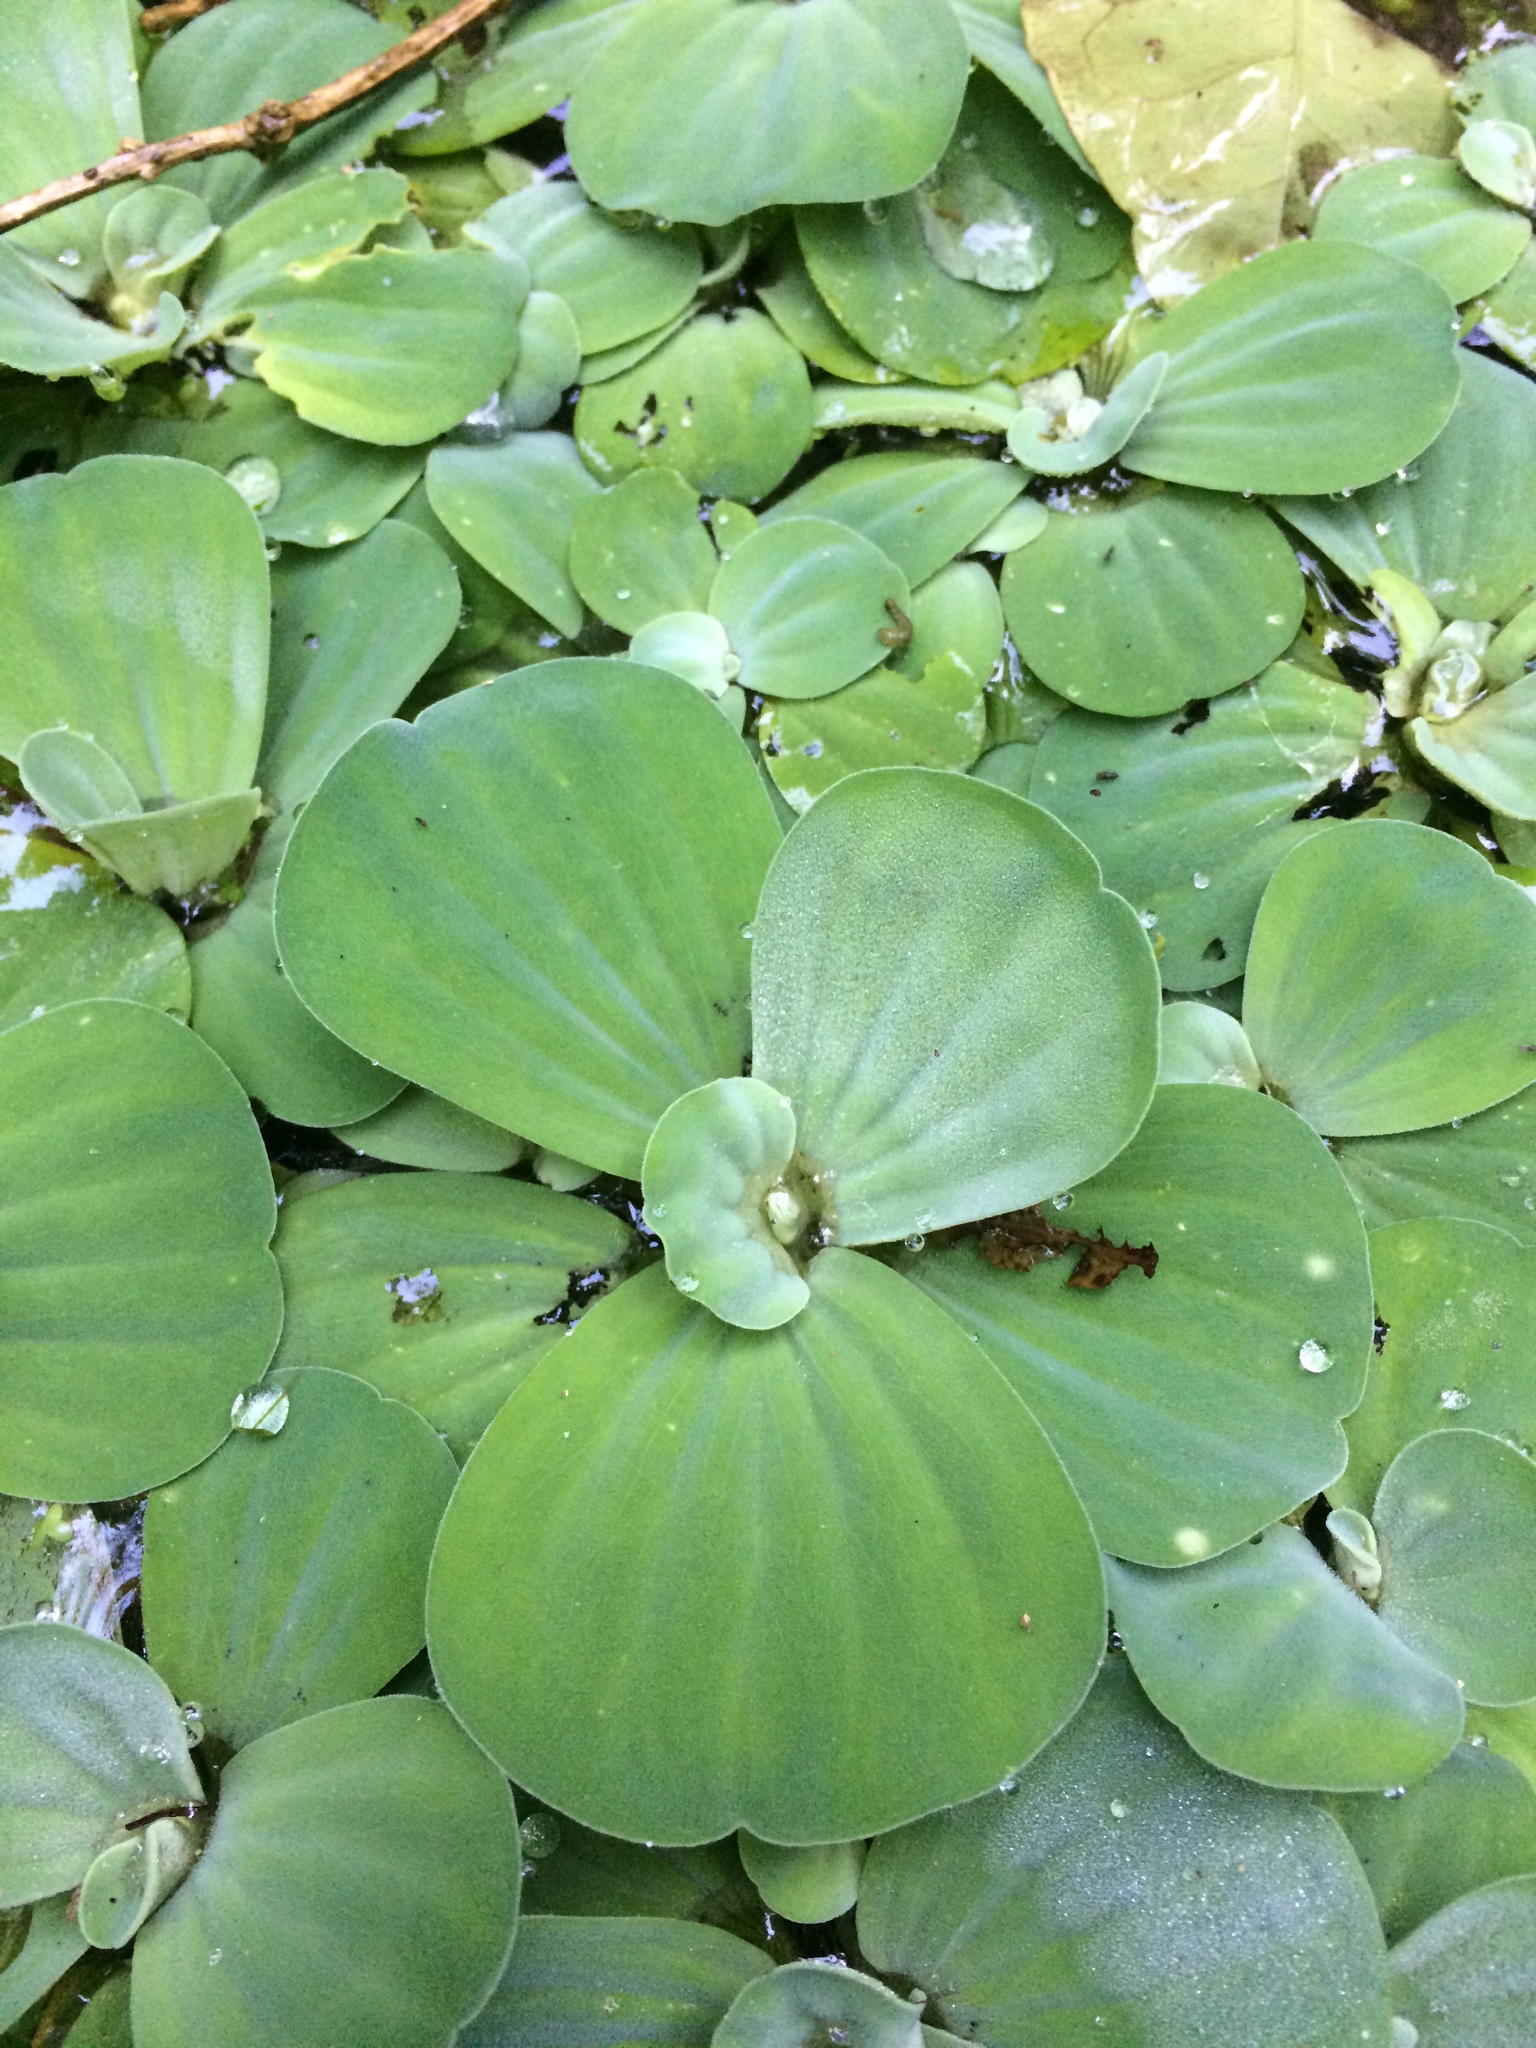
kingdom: Plantae
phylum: Tracheophyta
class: Liliopsida
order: Alismatales
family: Araceae
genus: Pistia
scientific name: Pistia stratiotes
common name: Water lettuce
